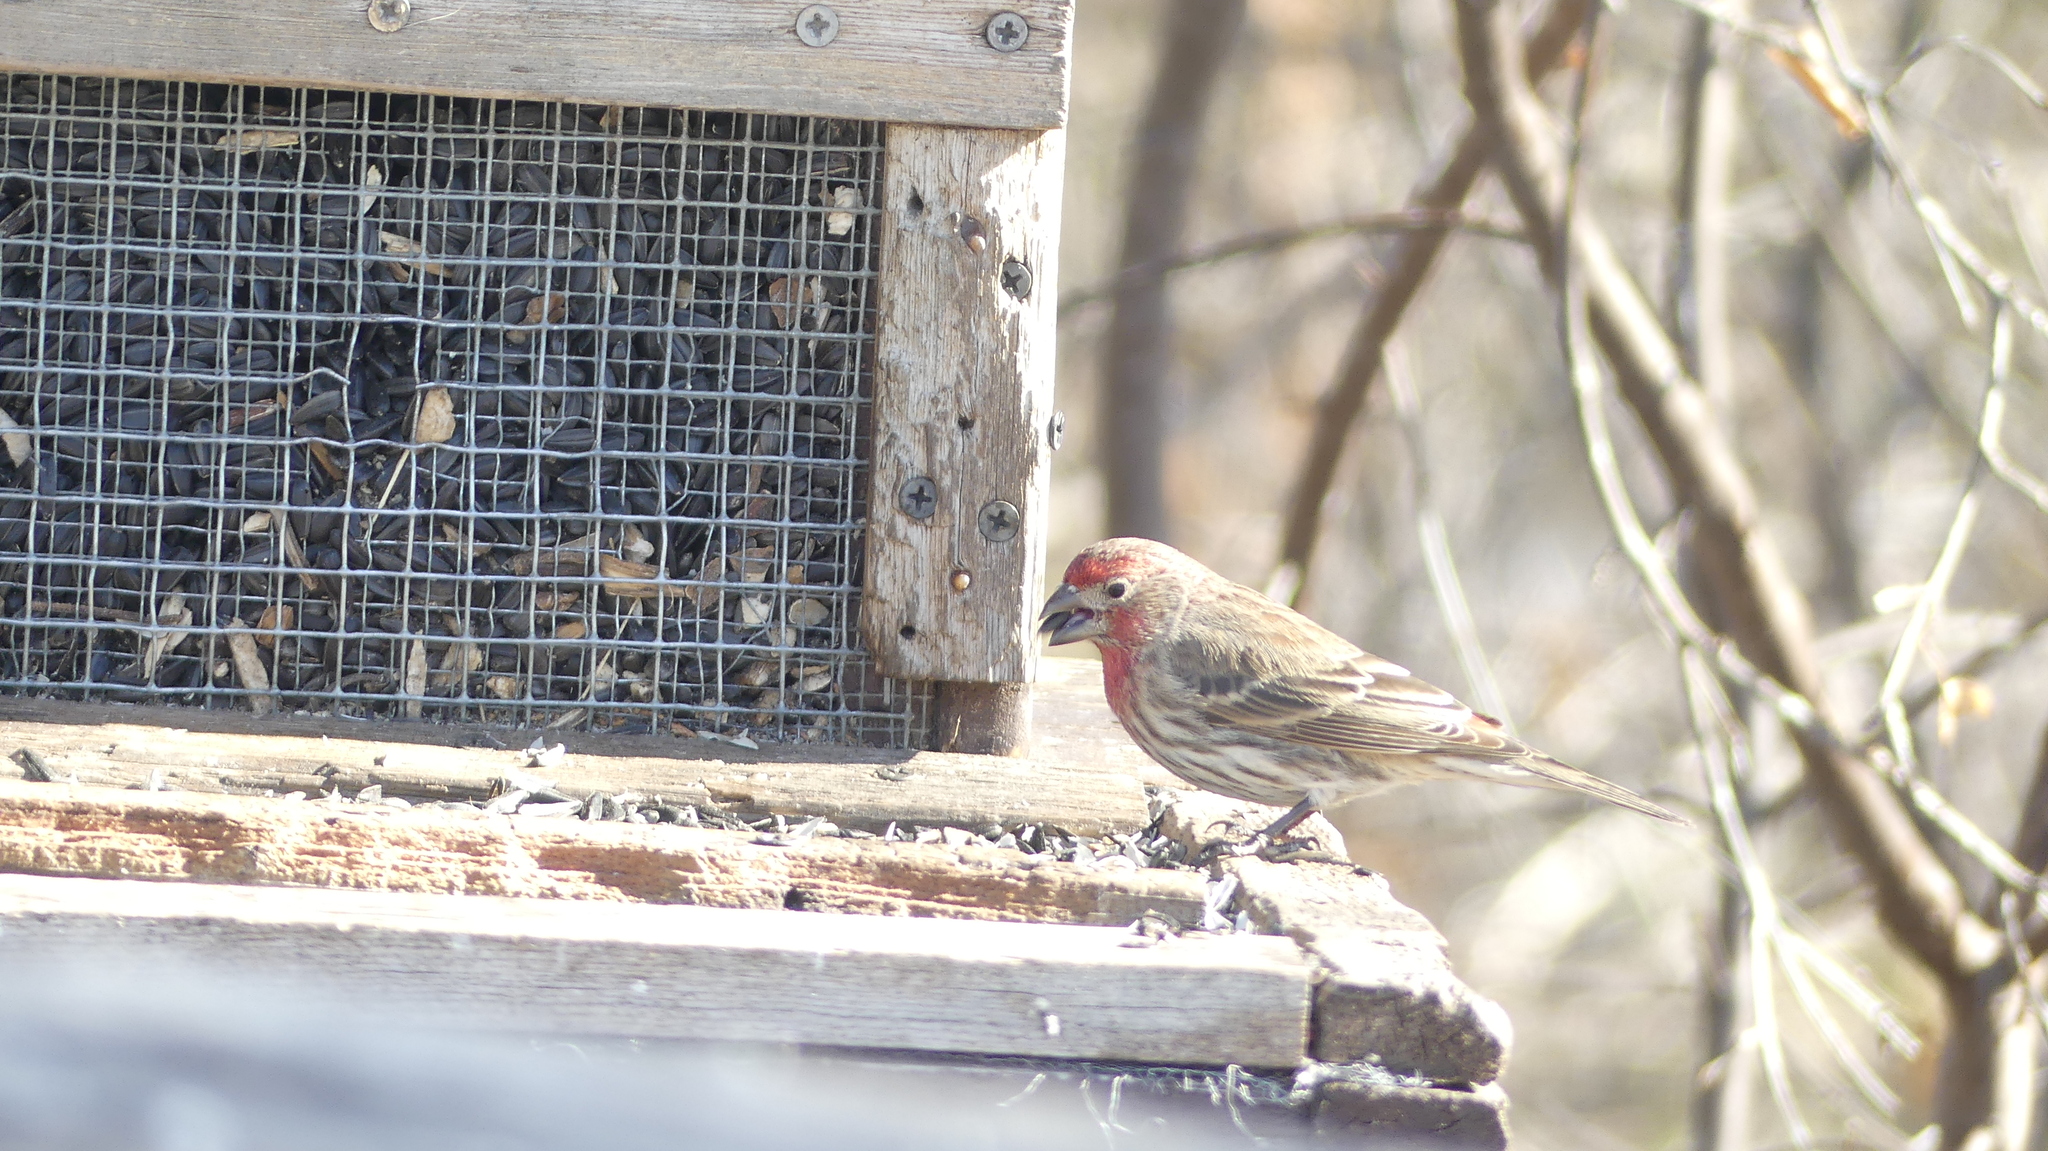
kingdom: Animalia
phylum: Chordata
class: Aves
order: Passeriformes
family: Fringillidae
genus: Haemorhous
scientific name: Haemorhous mexicanus
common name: House finch
